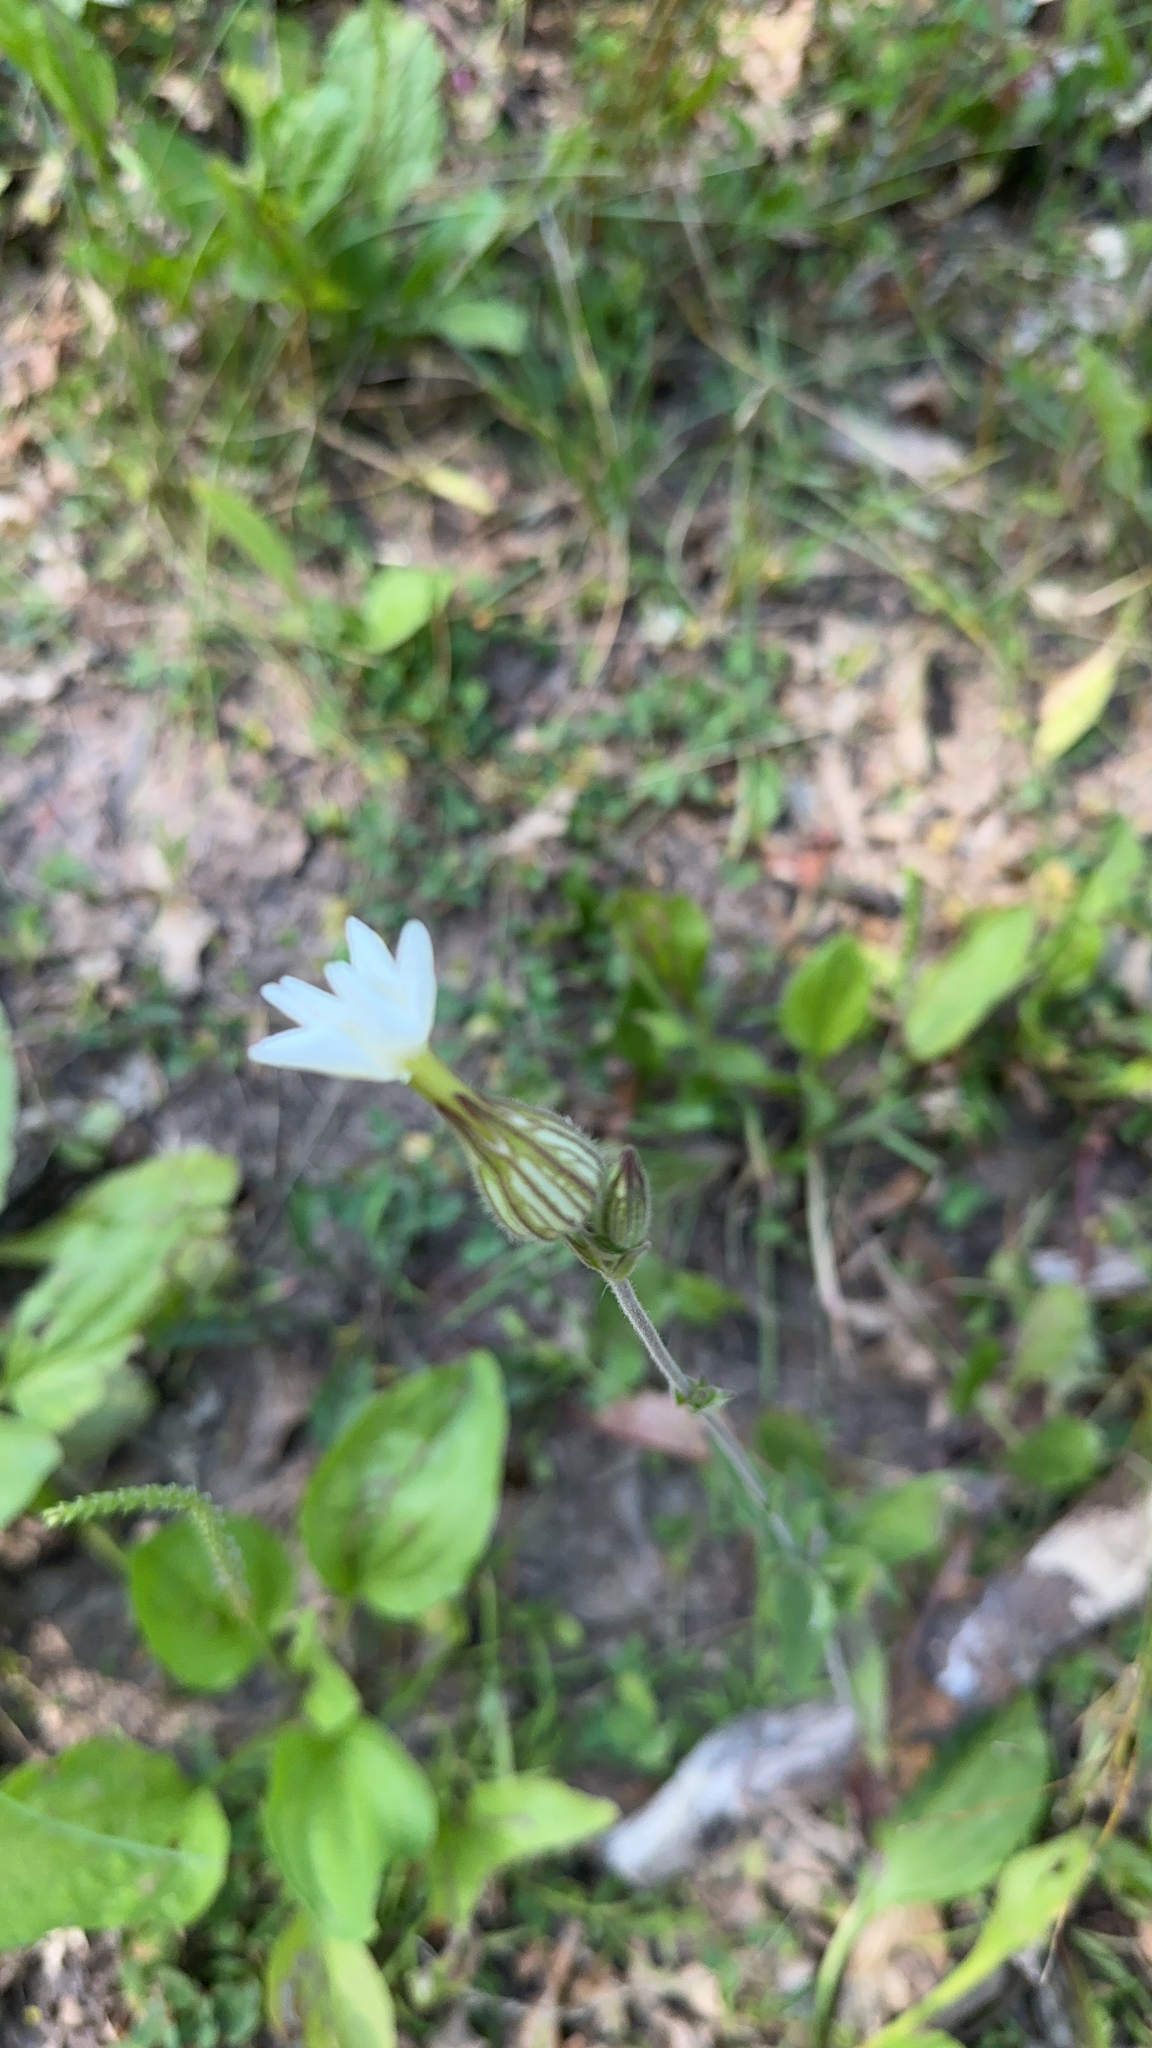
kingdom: Plantae
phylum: Tracheophyta
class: Magnoliopsida
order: Caryophyllales
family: Caryophyllaceae
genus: Silene
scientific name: Silene latifolia
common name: White campion
